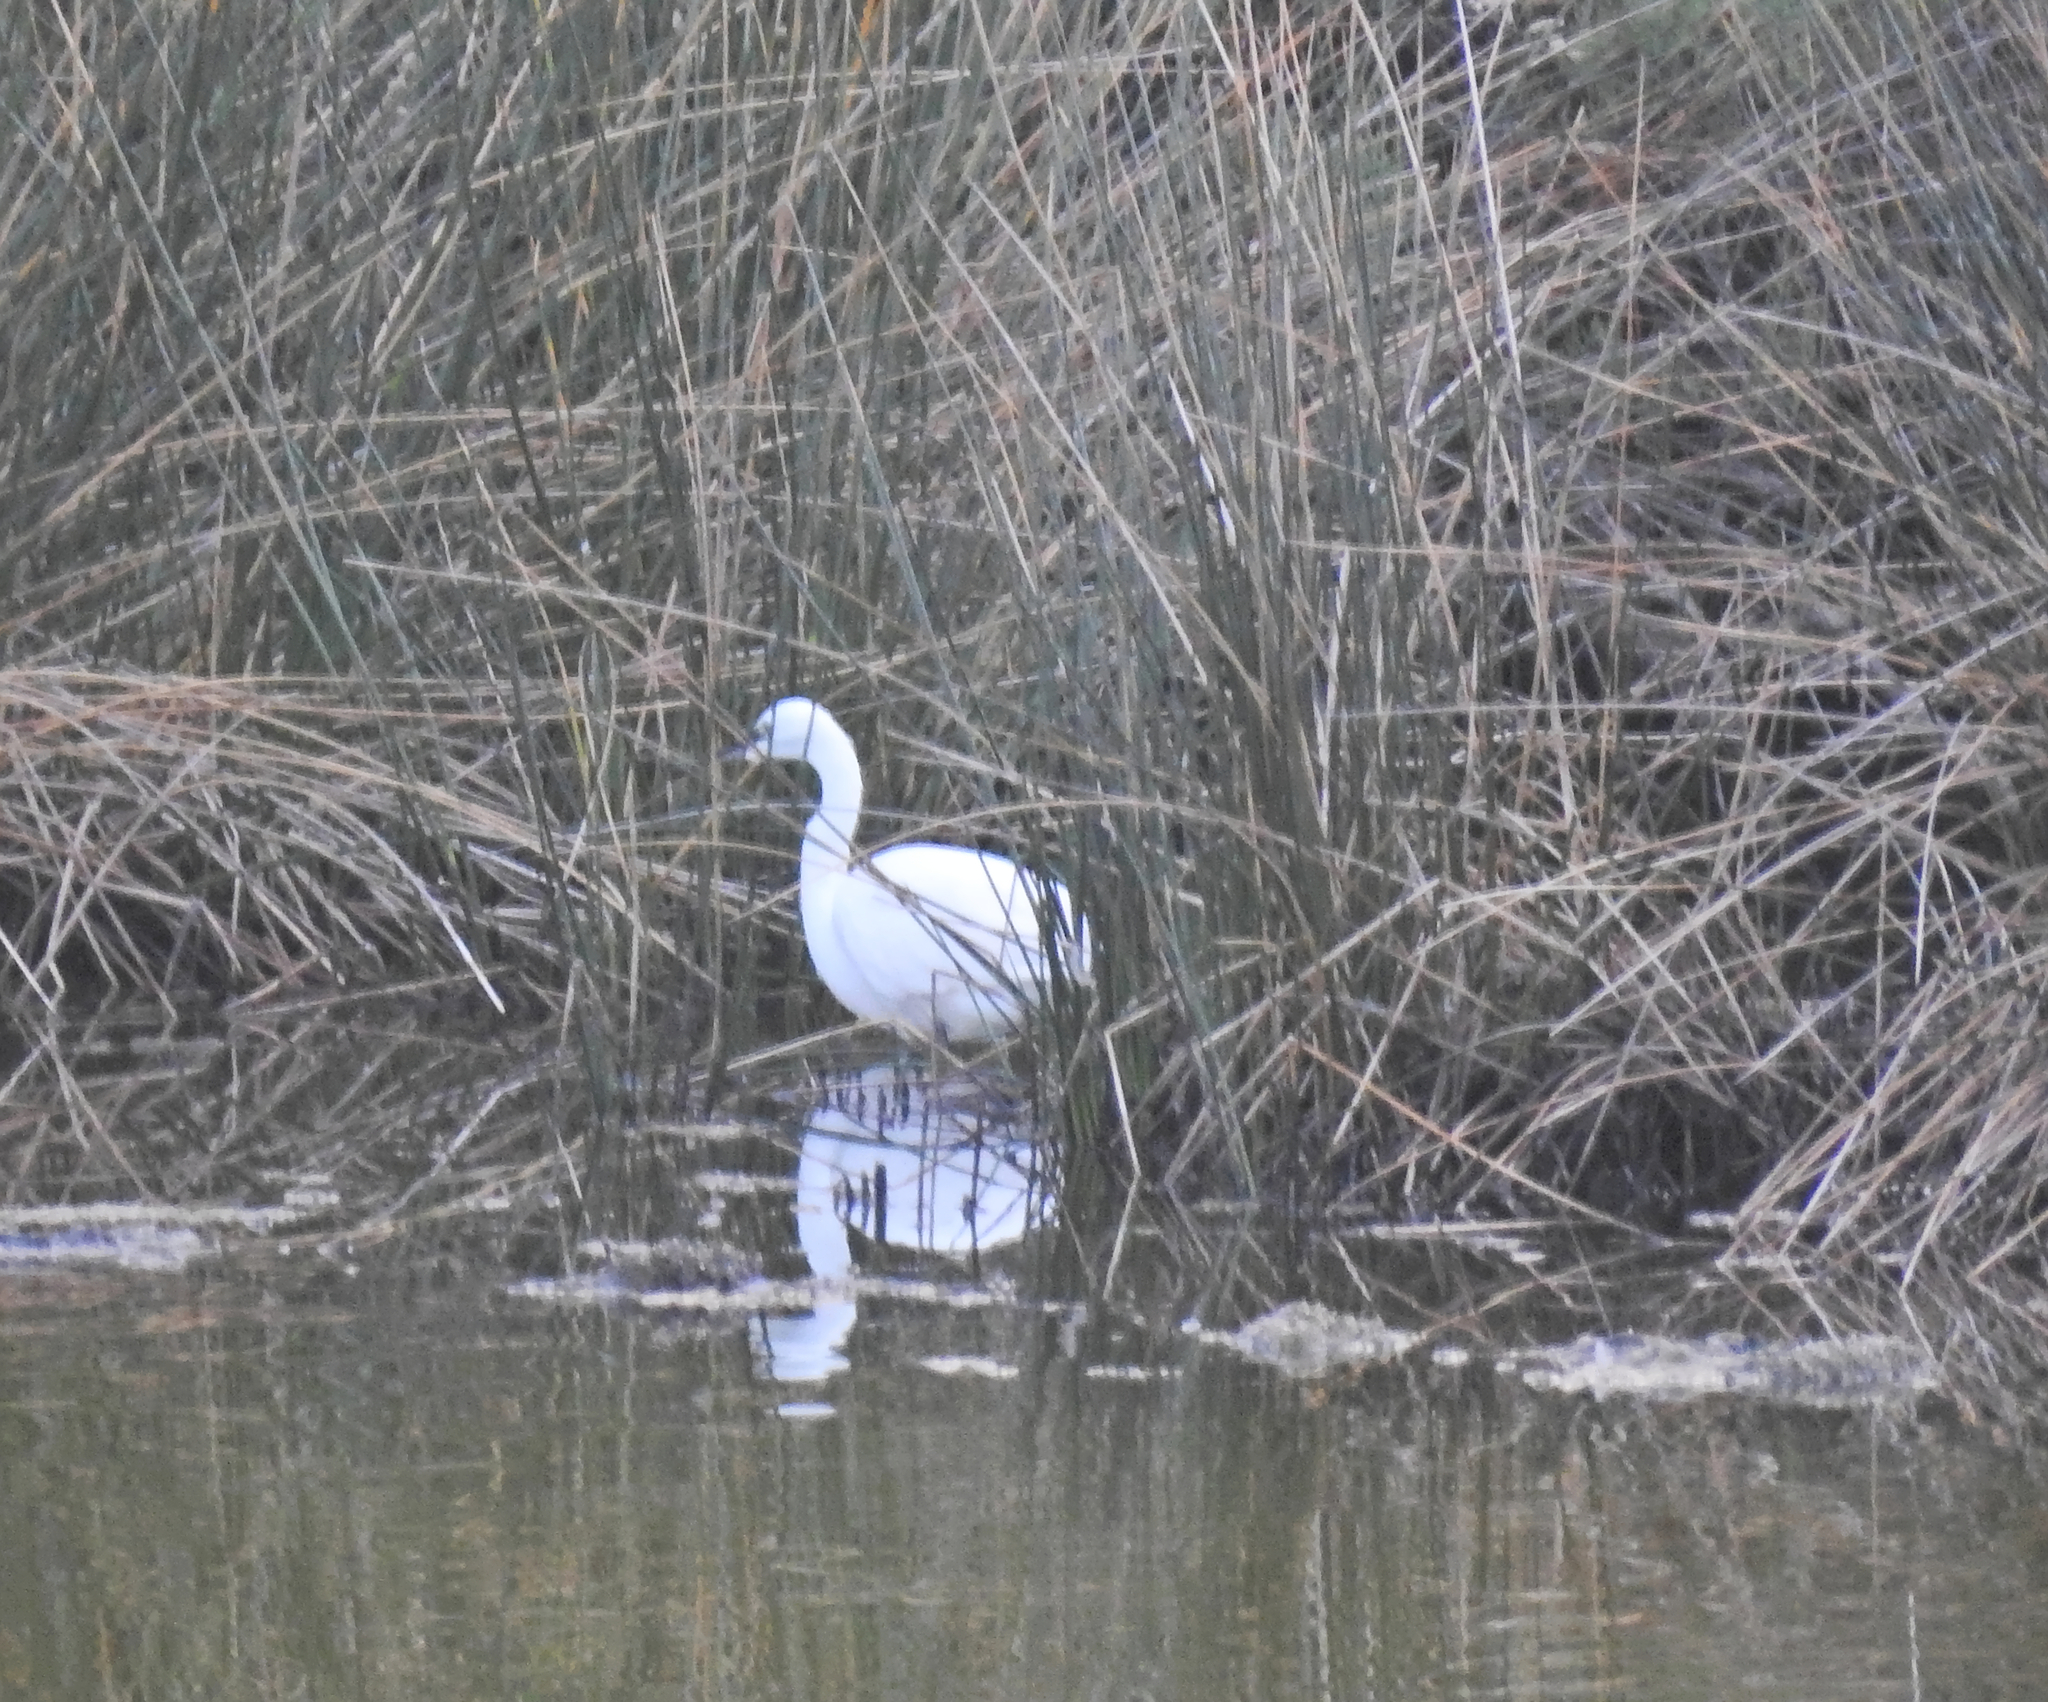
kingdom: Animalia
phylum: Chordata
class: Aves
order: Pelecaniformes
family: Ardeidae
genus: Egretta
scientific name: Egretta garzetta
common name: Little egret
